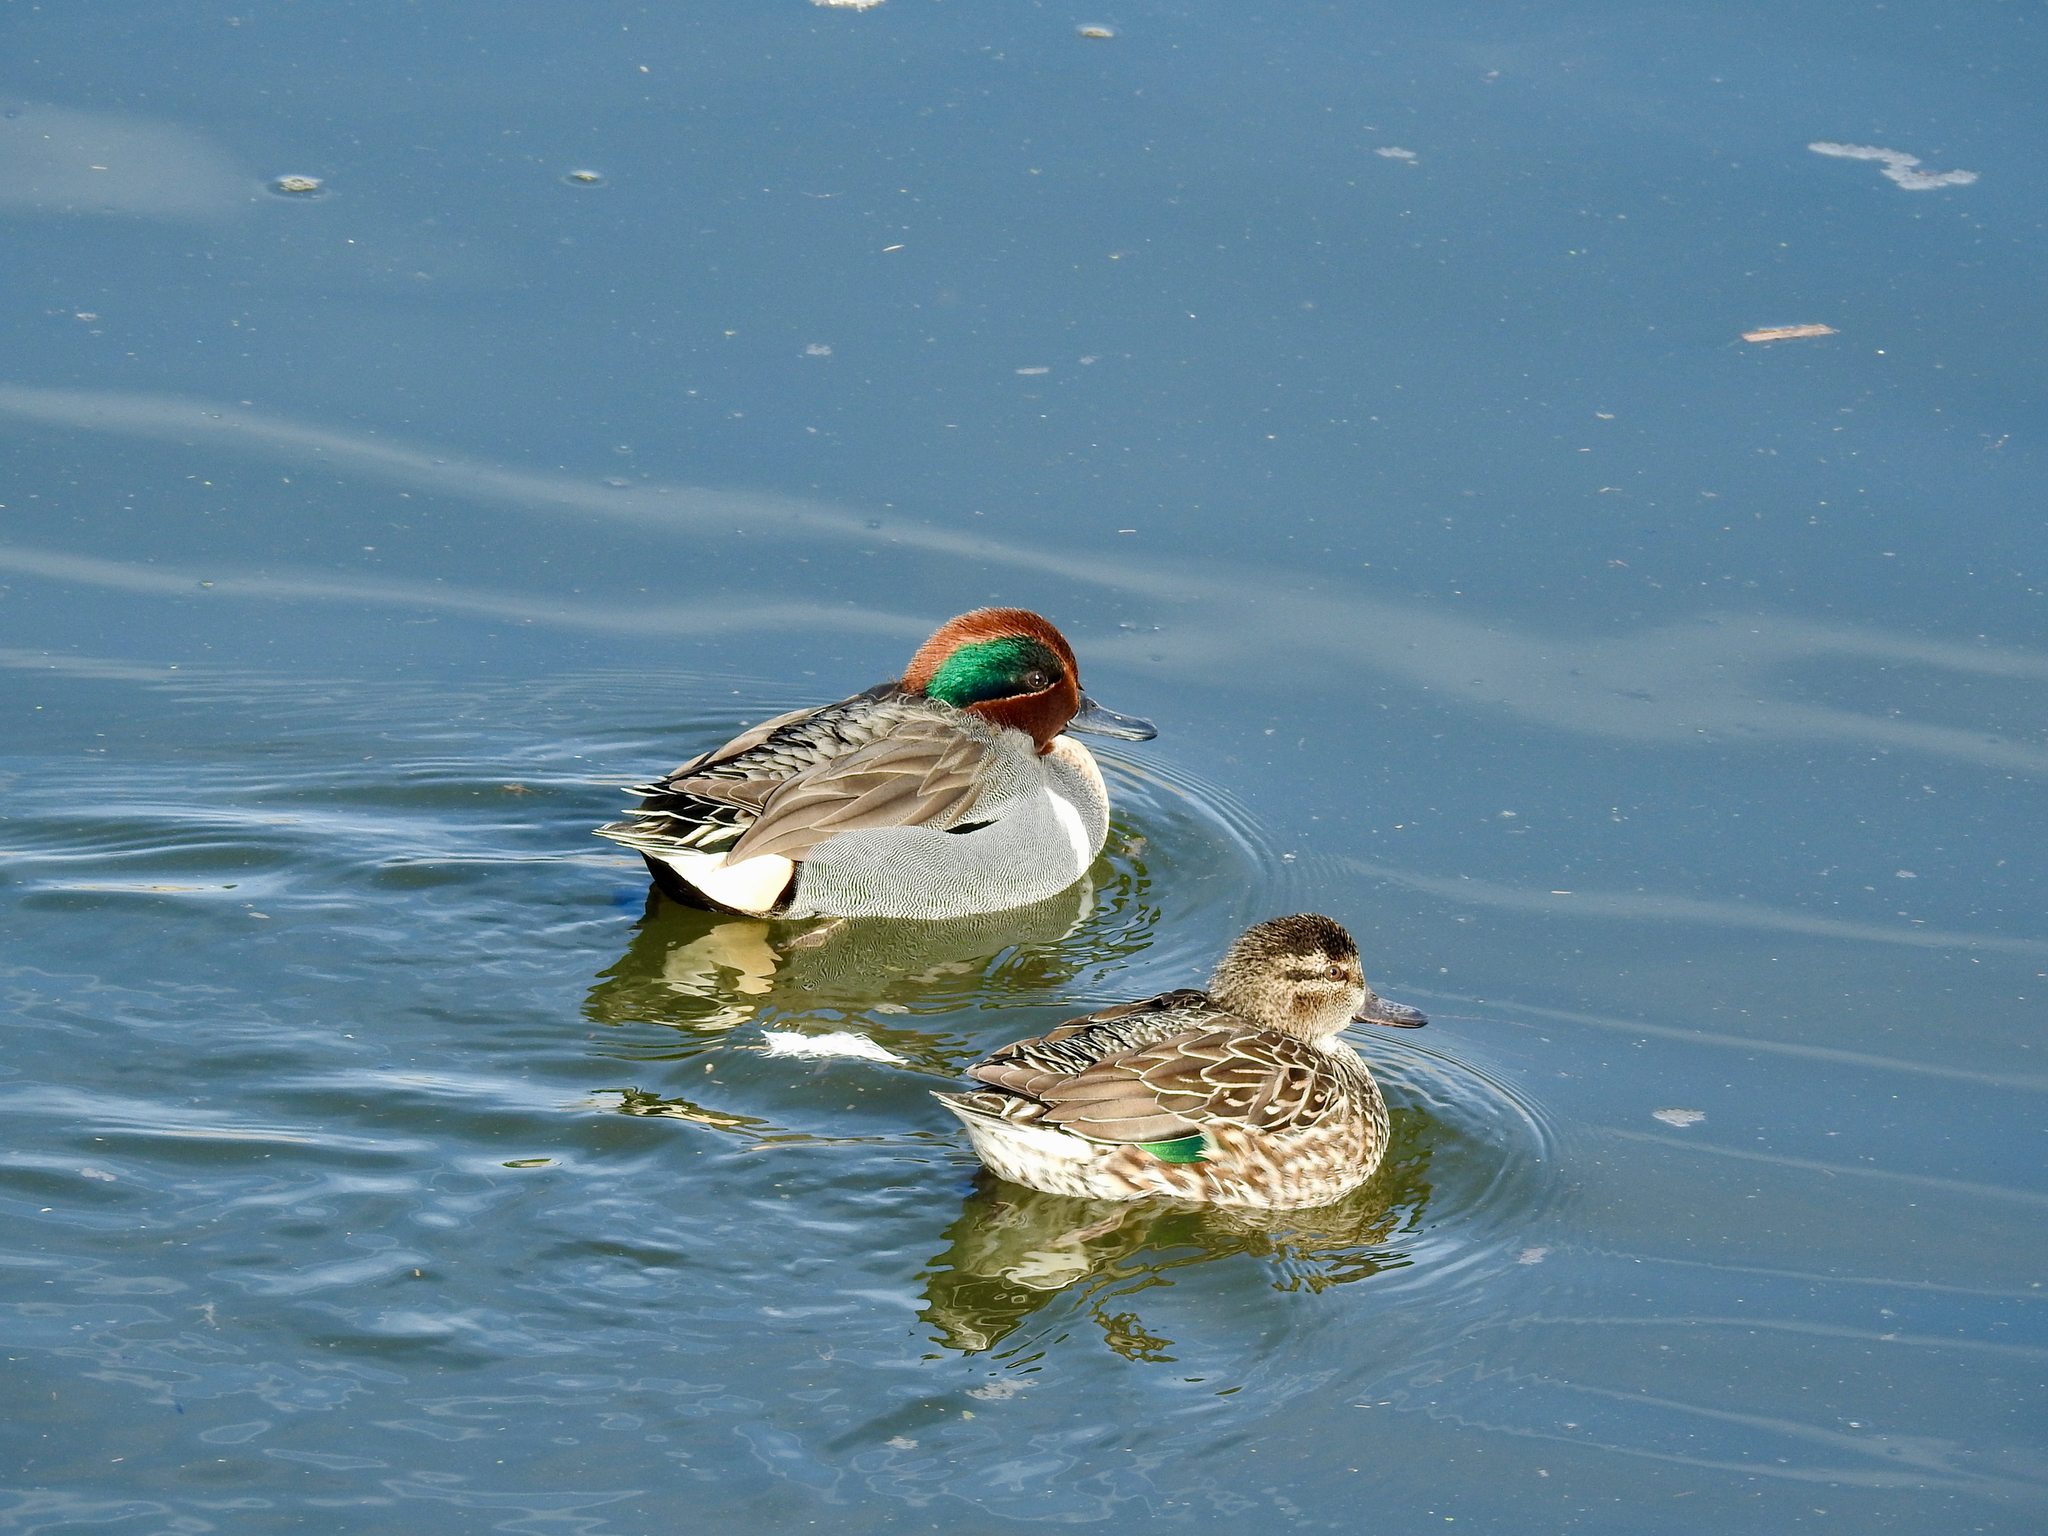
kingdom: Animalia
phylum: Chordata
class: Aves
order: Anseriformes
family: Anatidae
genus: Anas
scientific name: Anas crecca
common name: Eurasian teal
